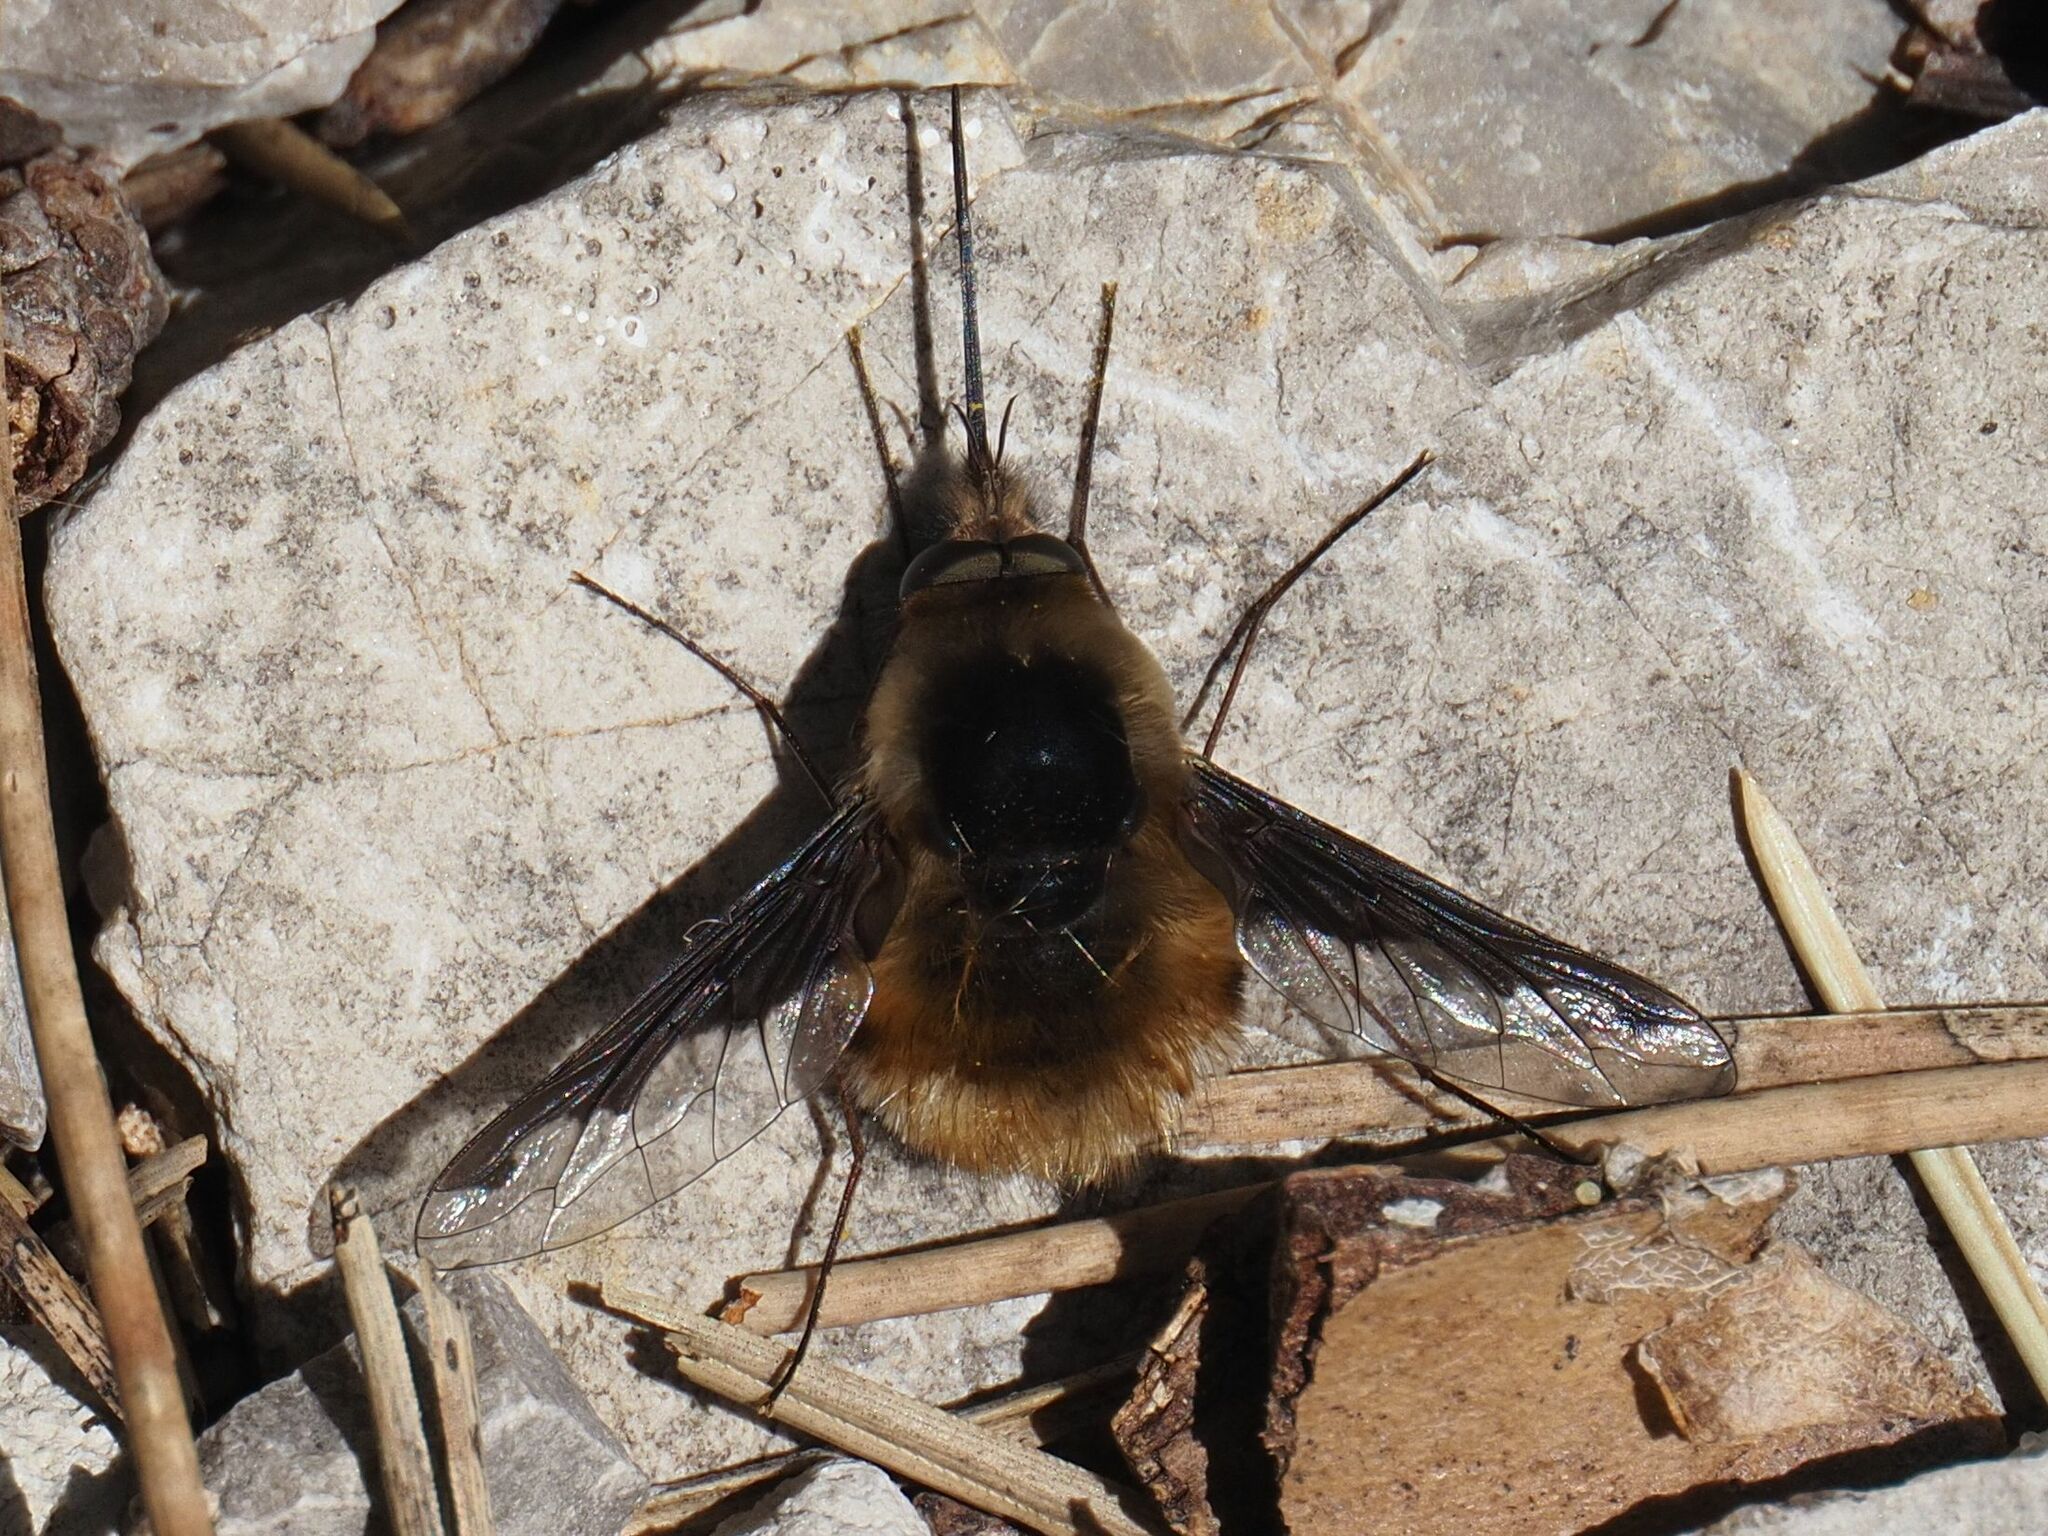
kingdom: Animalia
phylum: Arthropoda
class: Insecta
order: Diptera
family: Bombyliidae
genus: Bombylius
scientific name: Bombylius major
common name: Bee fly
